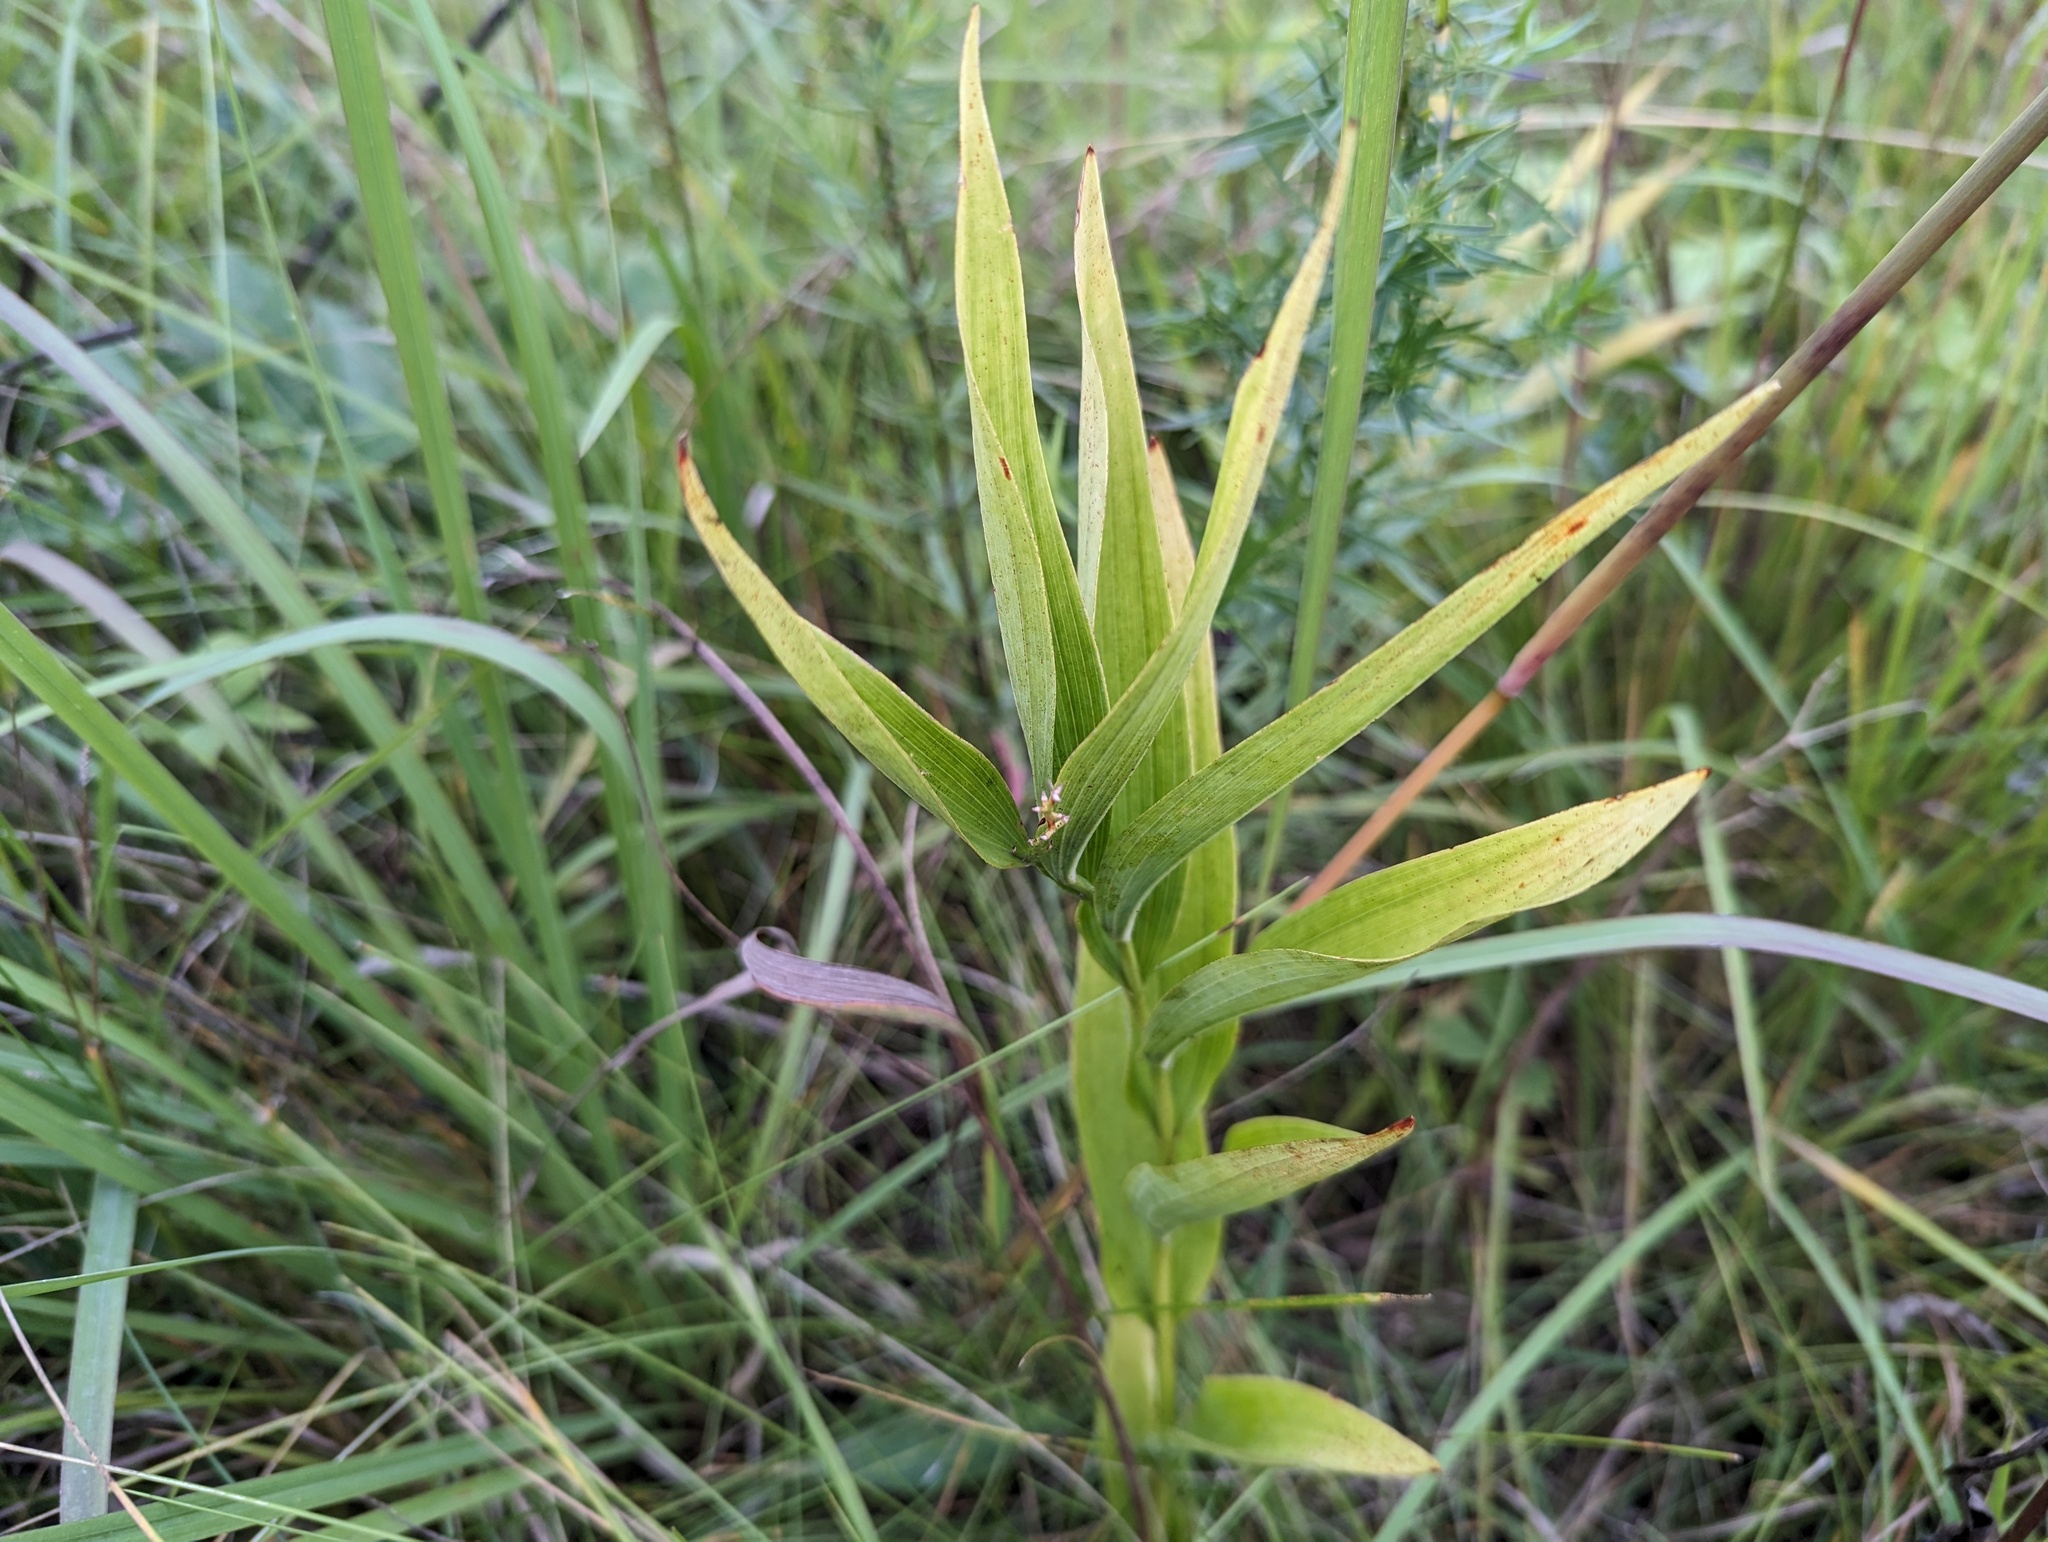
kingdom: Plantae
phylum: Tracheophyta
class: Liliopsida
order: Asparagales
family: Asparagaceae
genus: Maianthemum
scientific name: Maianthemum stellatum
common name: Little false solomon's seal
